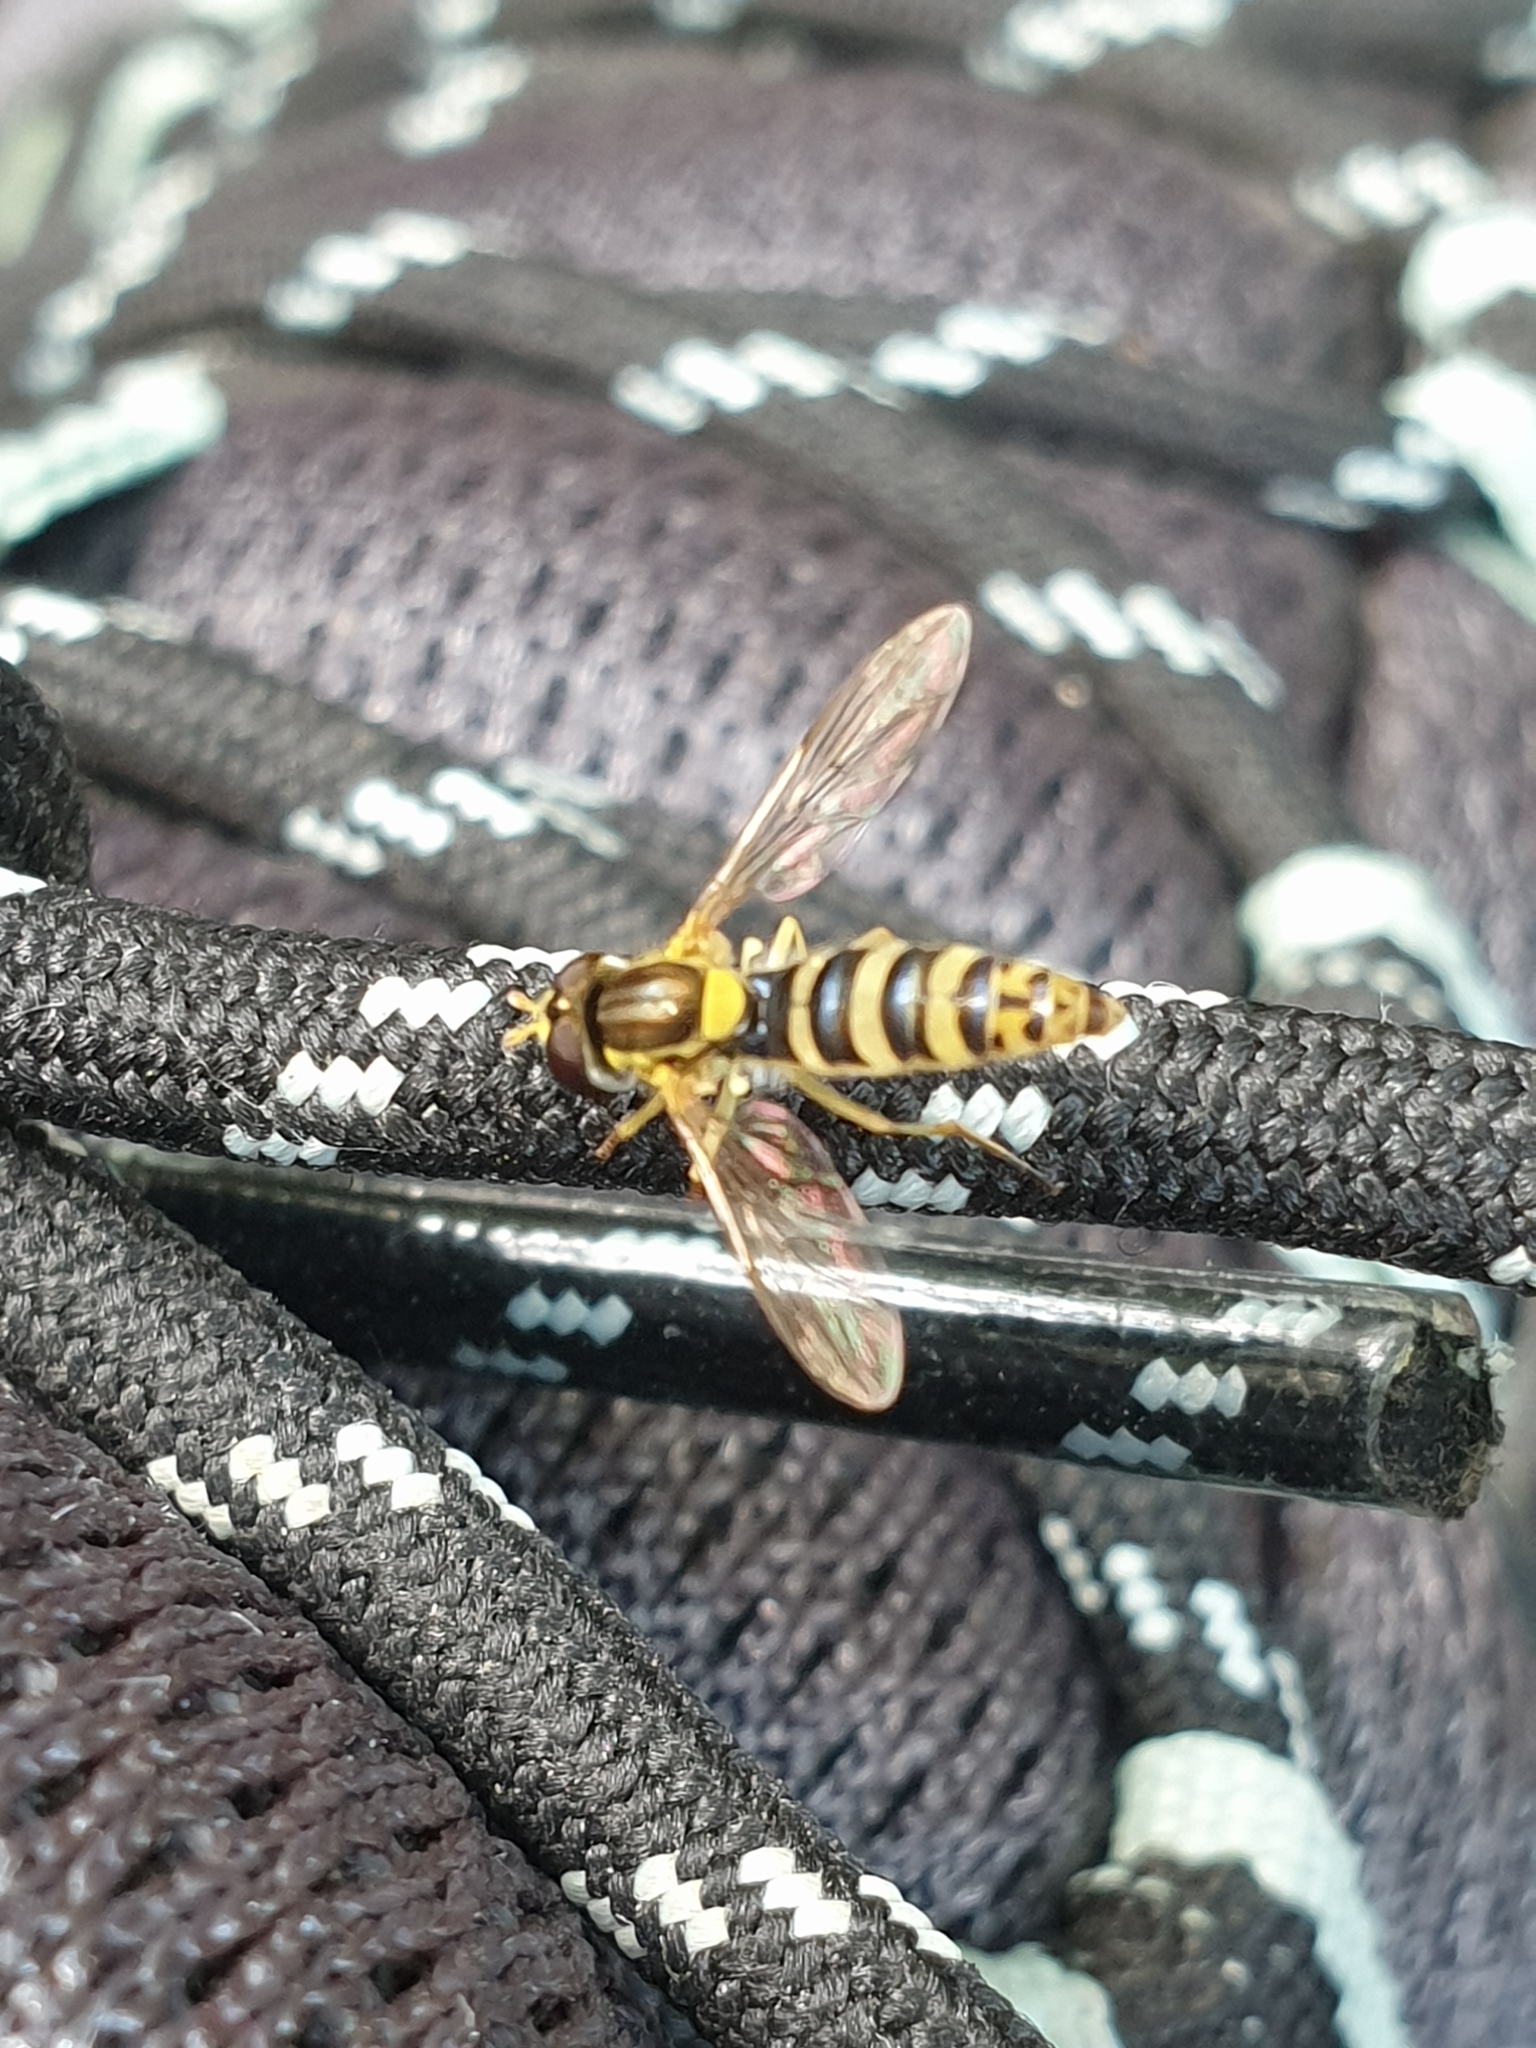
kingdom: Animalia
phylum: Arthropoda
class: Insecta
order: Diptera
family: Syrphidae
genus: Sphaerophoria
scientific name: Sphaerophoria
